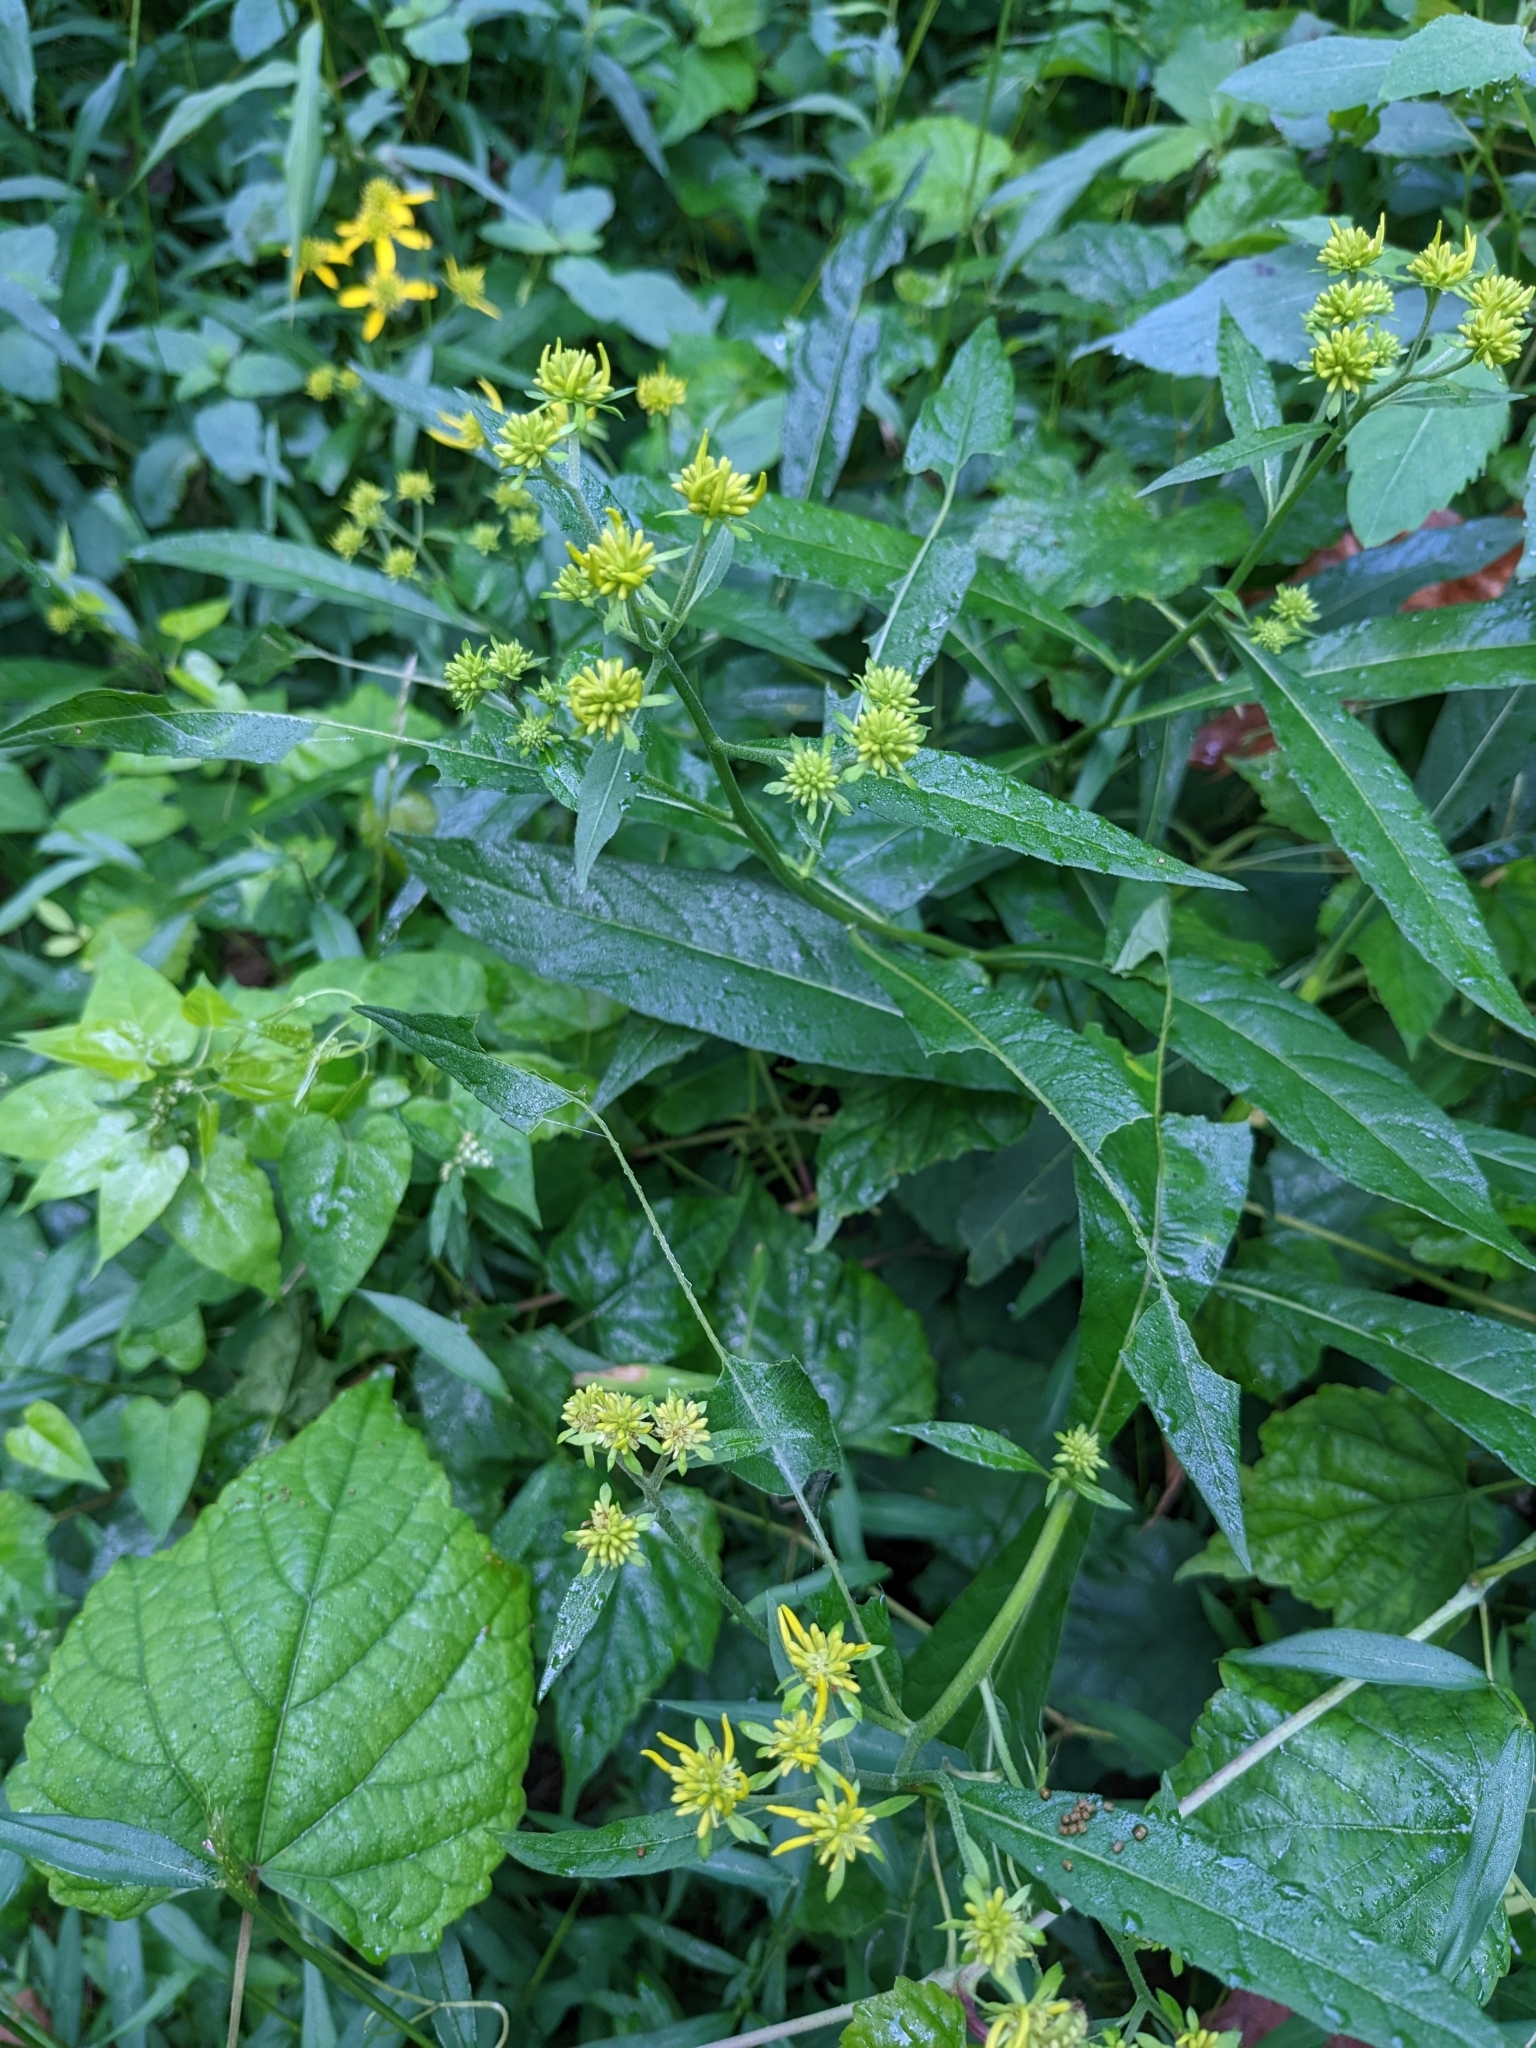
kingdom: Plantae
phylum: Tracheophyta
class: Magnoliopsida
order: Asterales
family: Asteraceae
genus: Verbesina
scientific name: Verbesina alternifolia
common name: Wingstem
